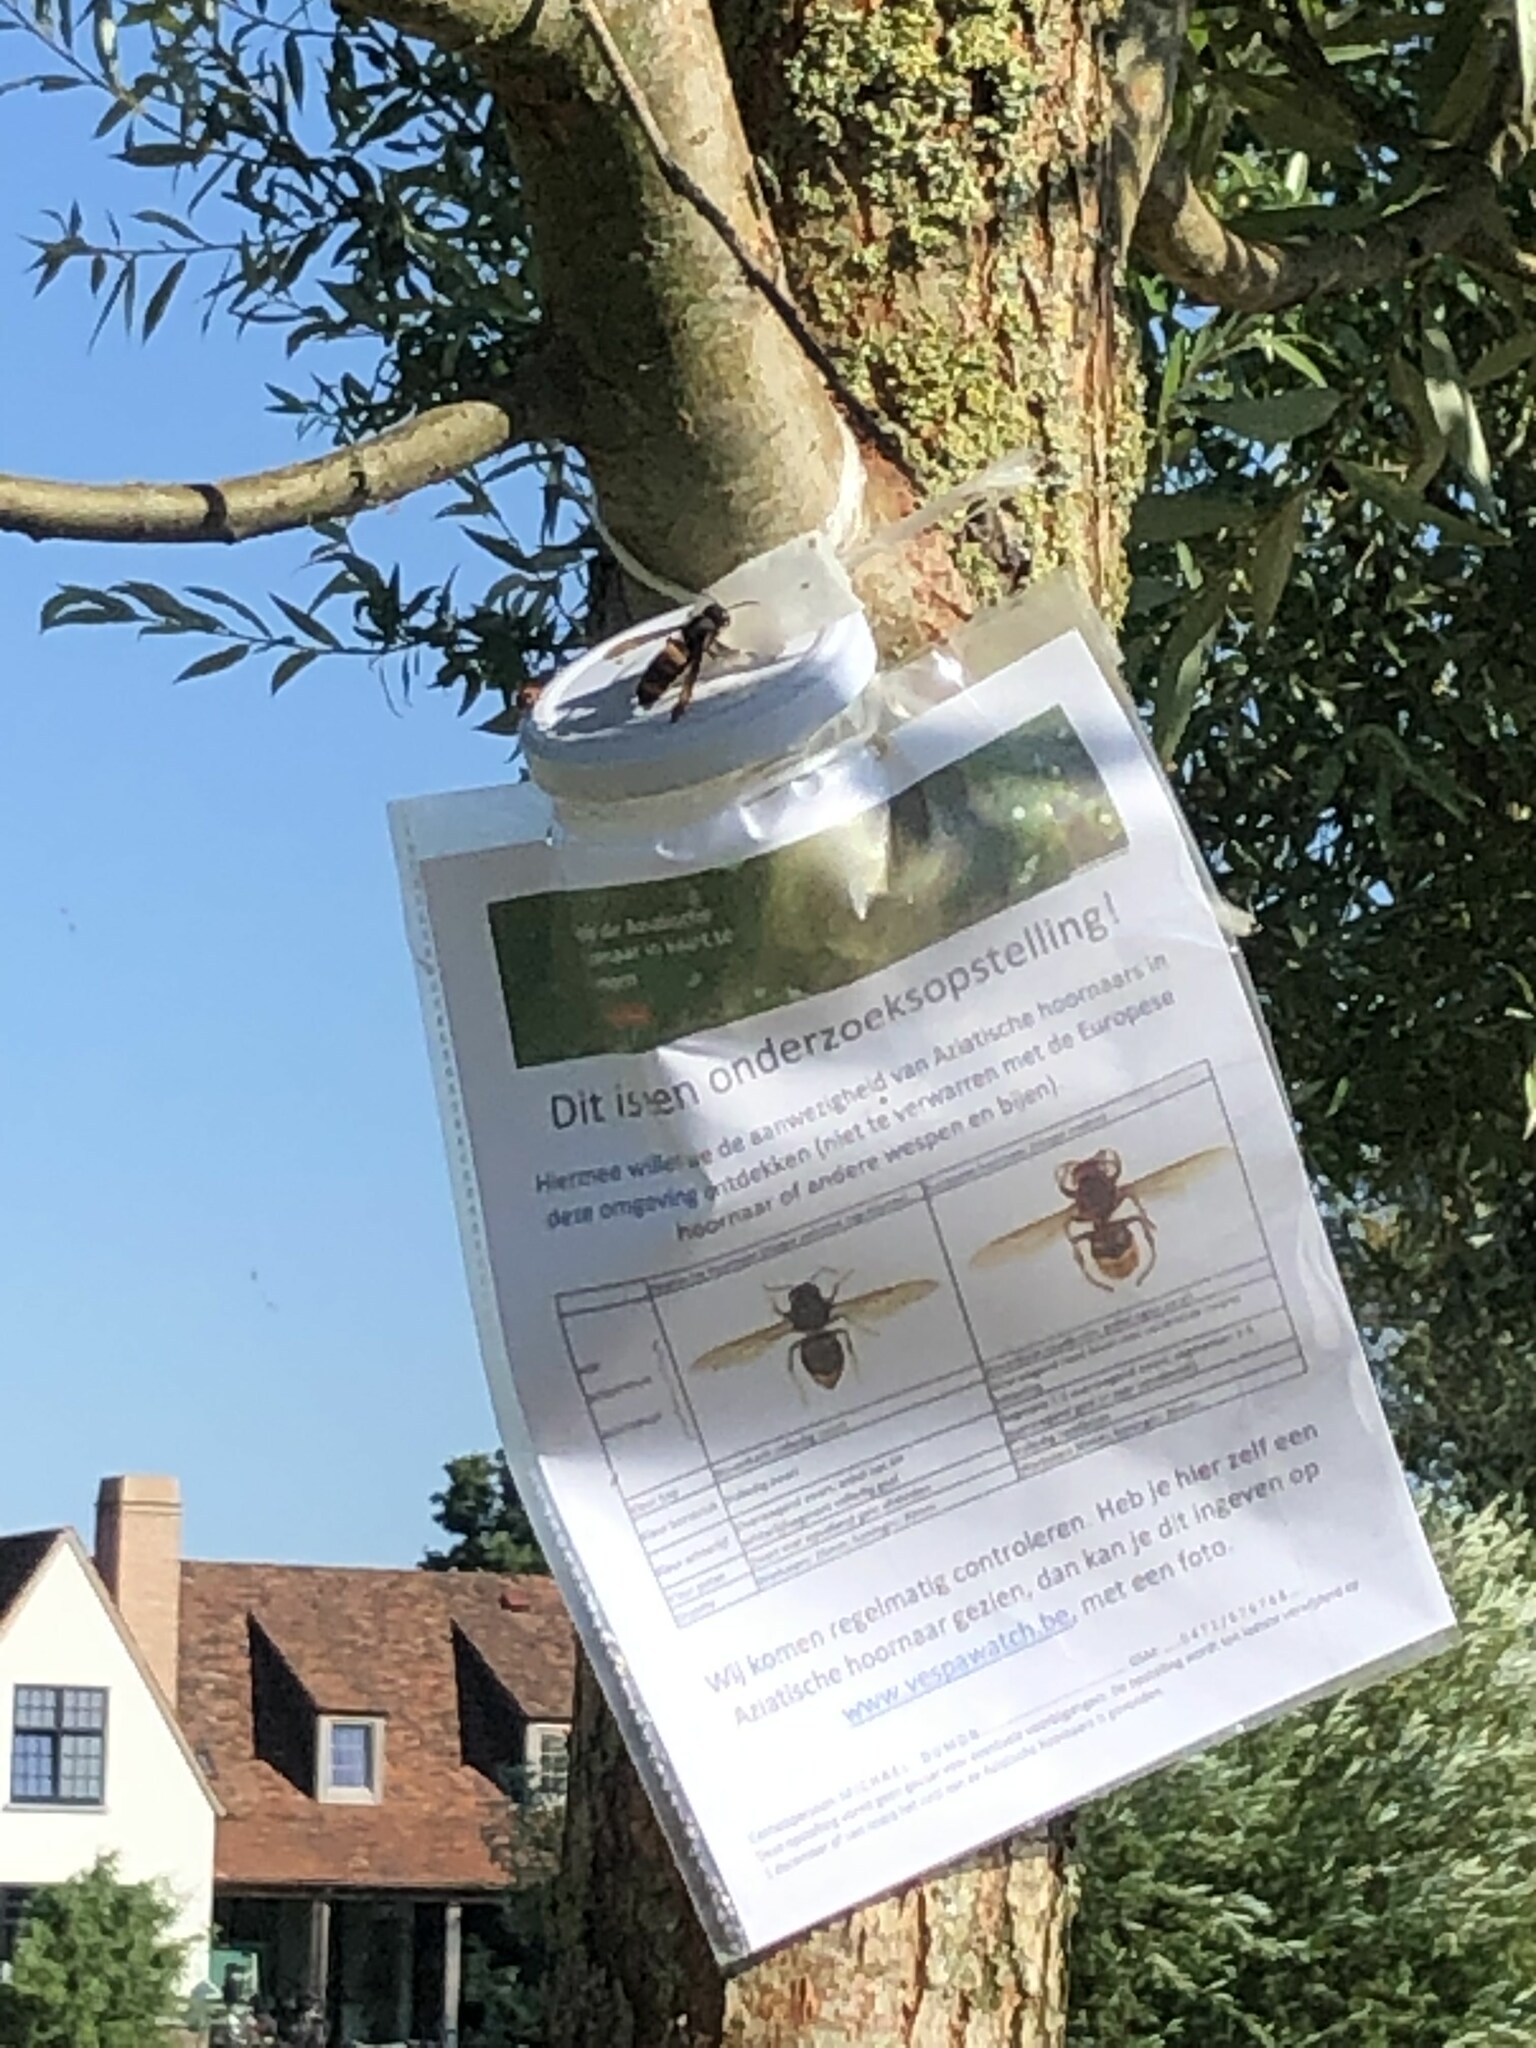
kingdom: Animalia
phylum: Arthropoda
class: Insecta
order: Hymenoptera
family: Vespidae
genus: Vespa
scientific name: Vespa velutina
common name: Asian hornet
